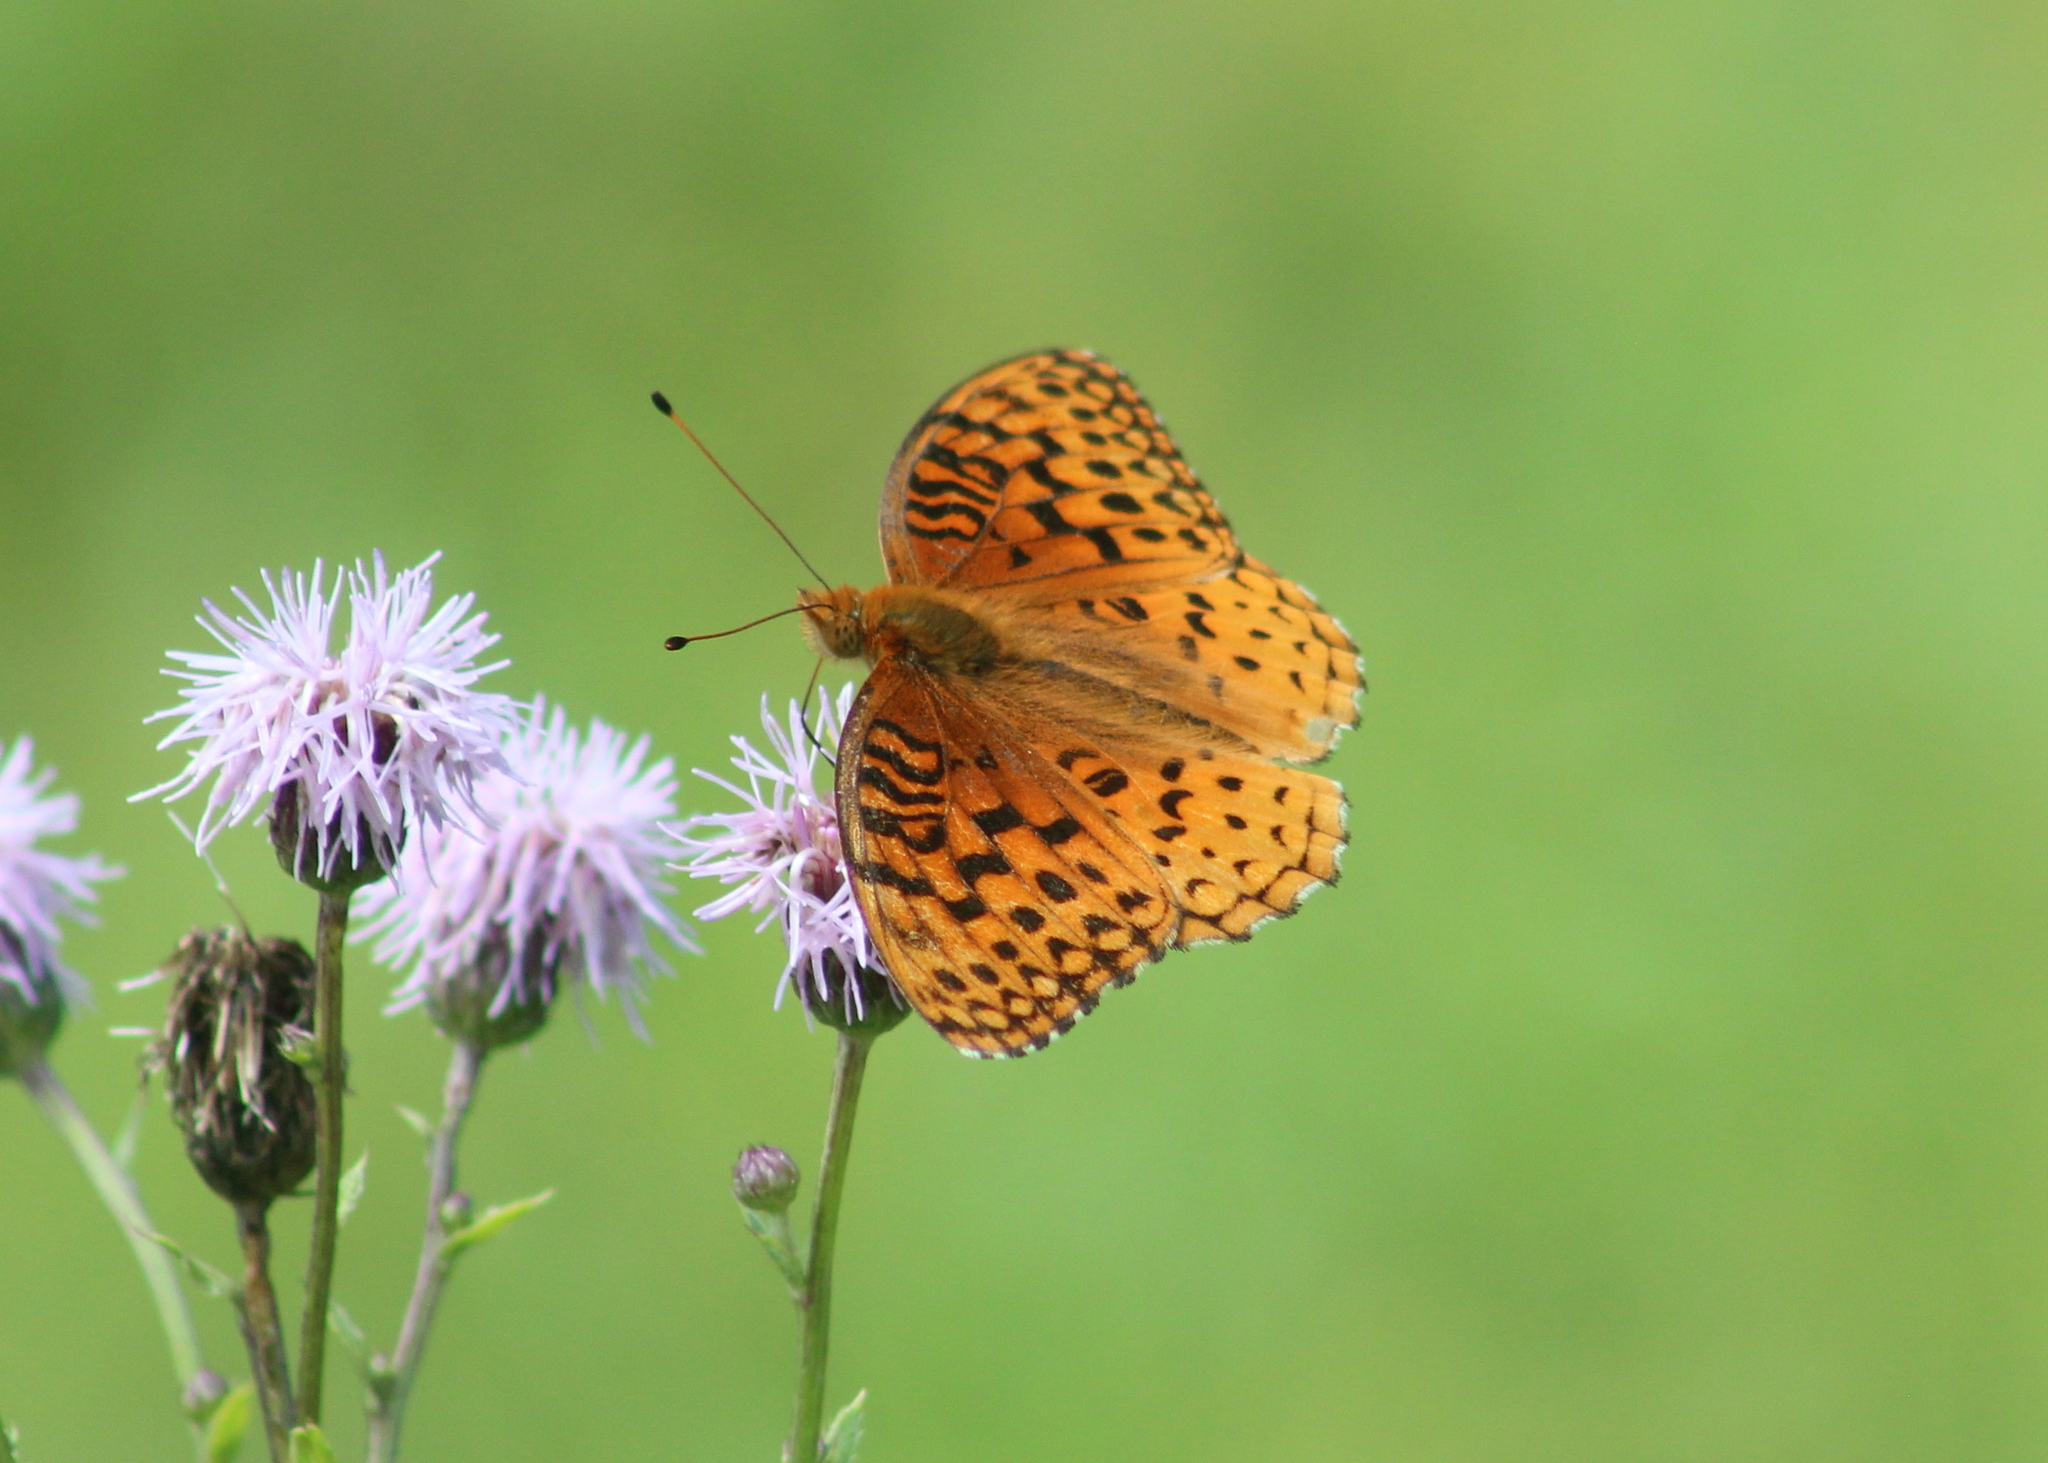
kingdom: Animalia
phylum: Arthropoda
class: Insecta
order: Lepidoptera
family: Nymphalidae
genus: Speyeria
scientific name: Speyeria aphrodite
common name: Aphrodite friitllary
